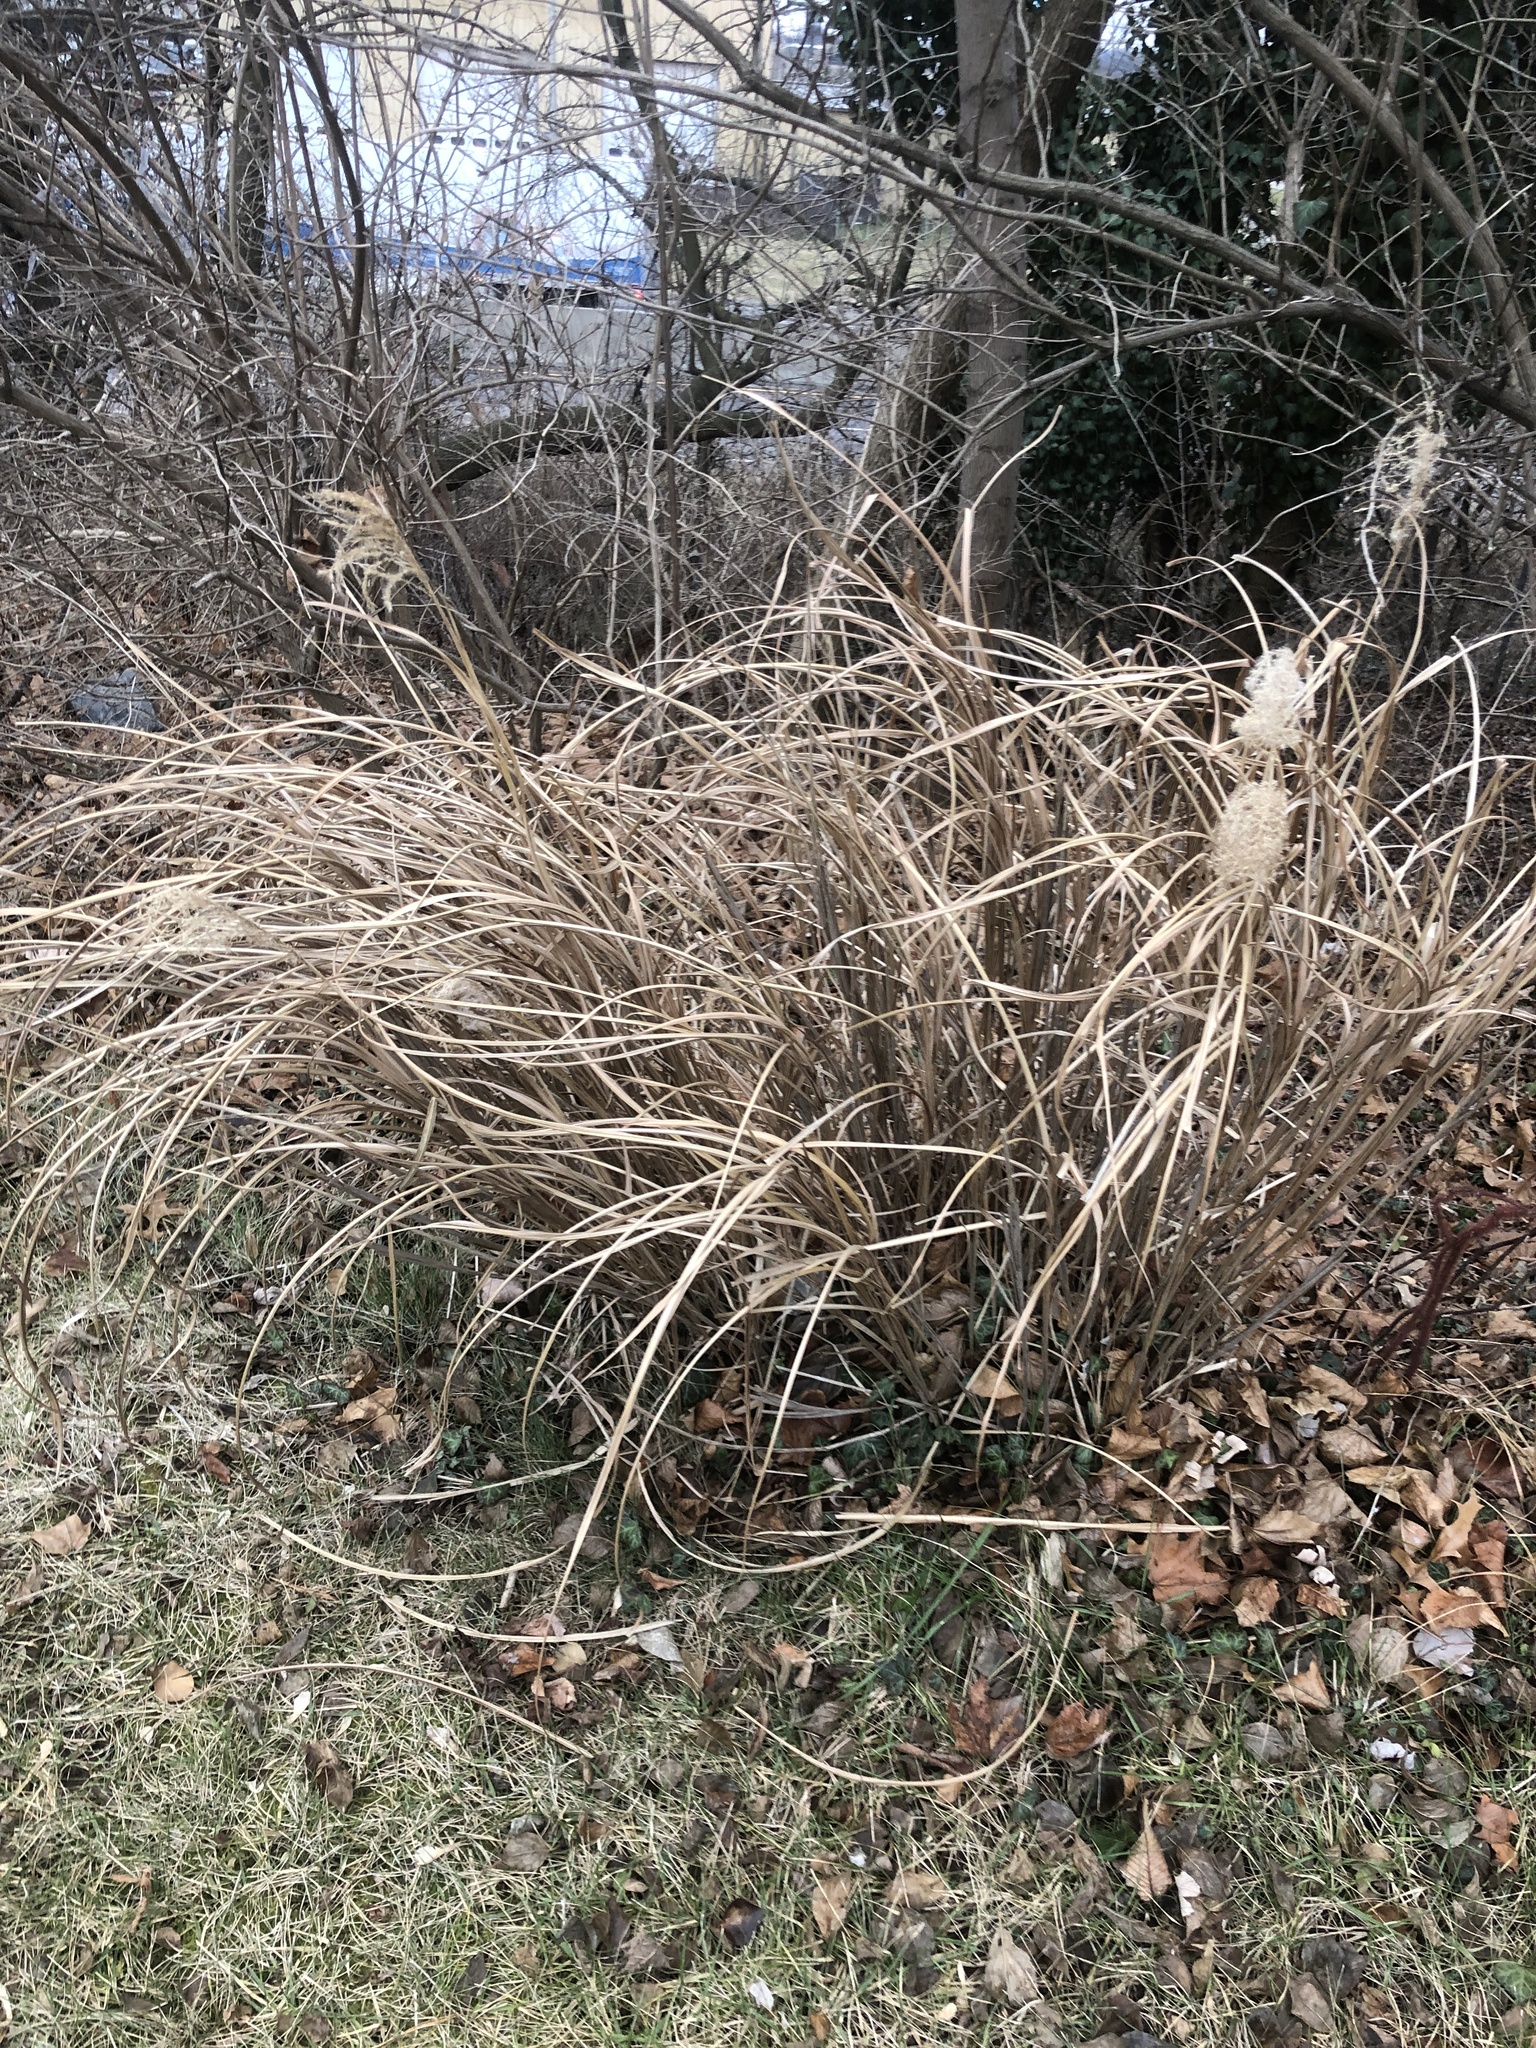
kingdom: Plantae
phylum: Tracheophyta
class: Liliopsida
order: Poales
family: Poaceae
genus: Miscanthus
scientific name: Miscanthus sinensis
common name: Chinese silvergrass
